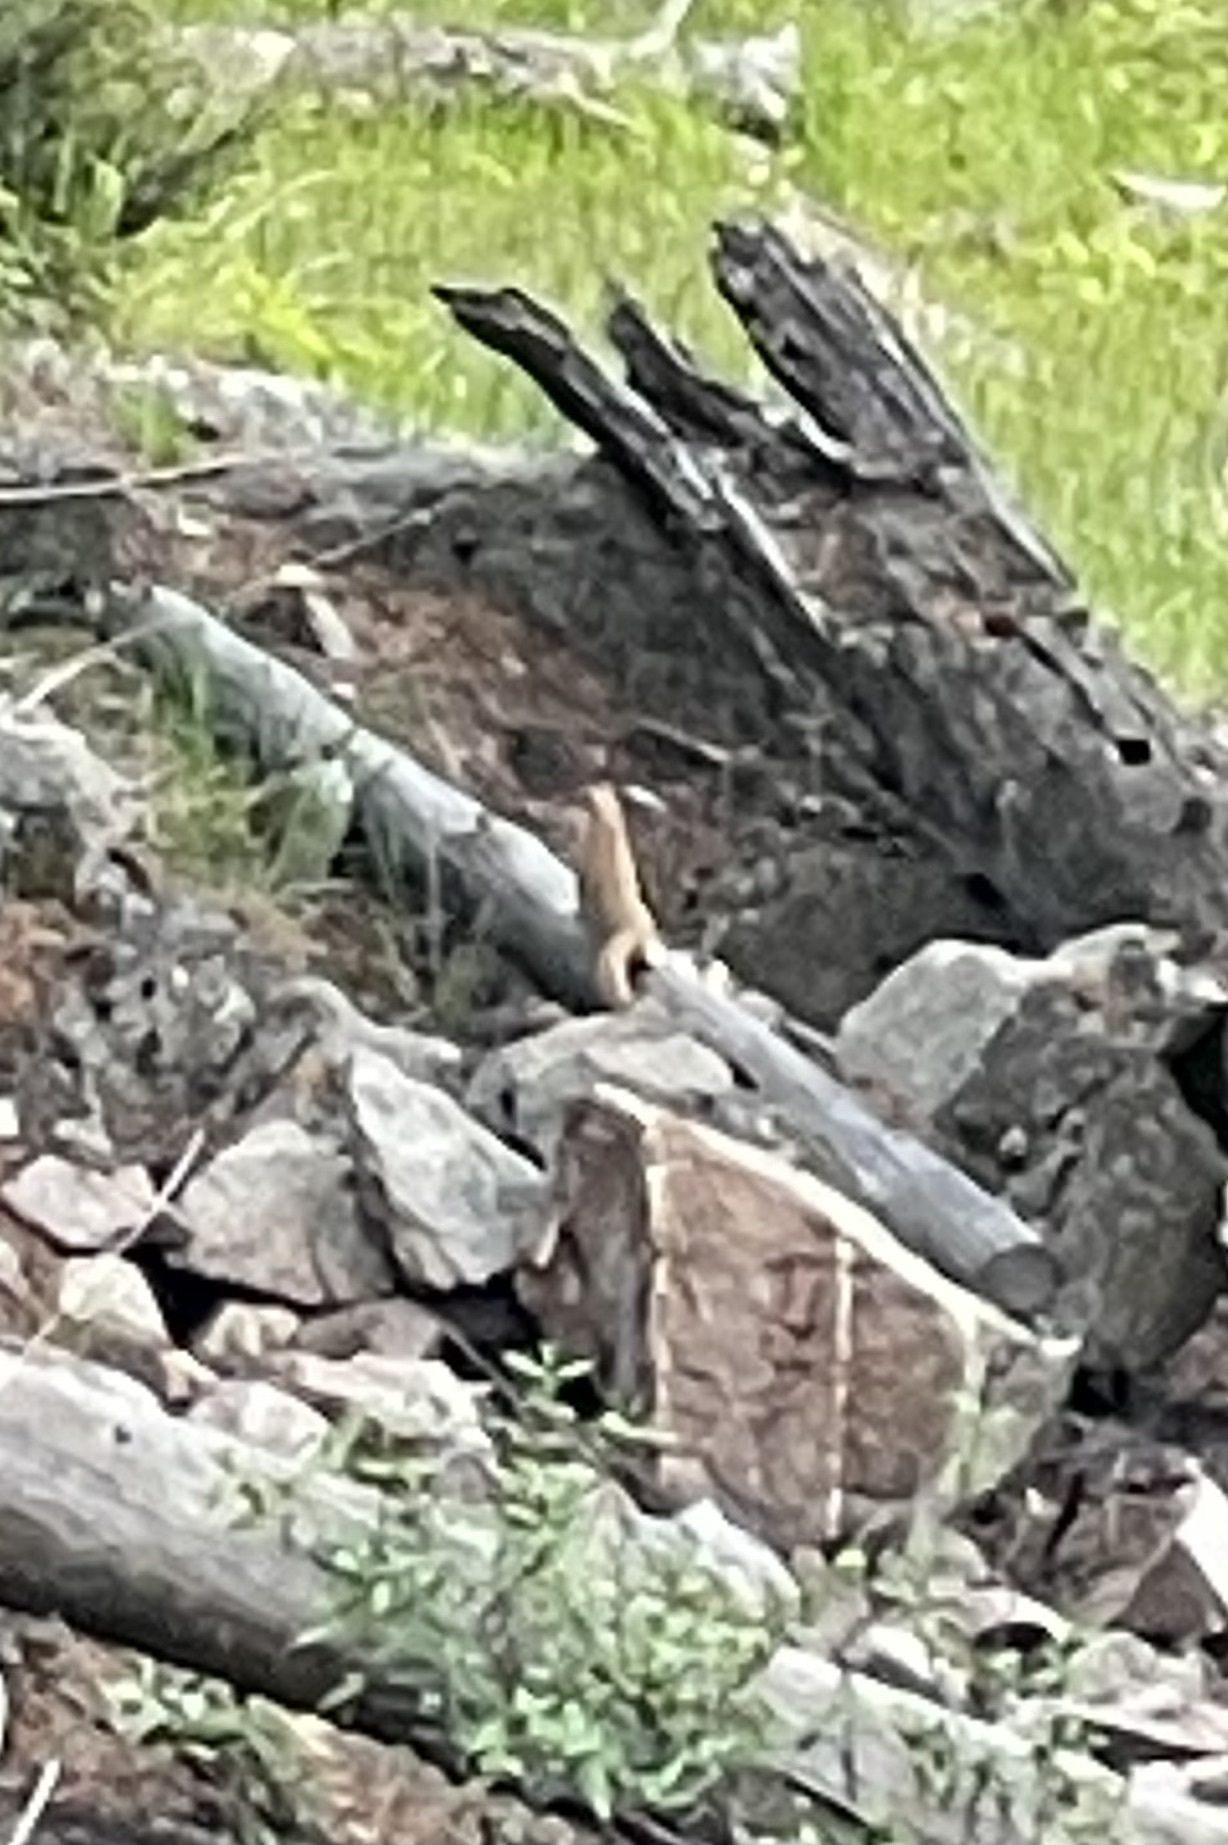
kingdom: Animalia
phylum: Chordata
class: Mammalia
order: Carnivora
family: Mustelidae
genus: Mustela
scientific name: Mustela
